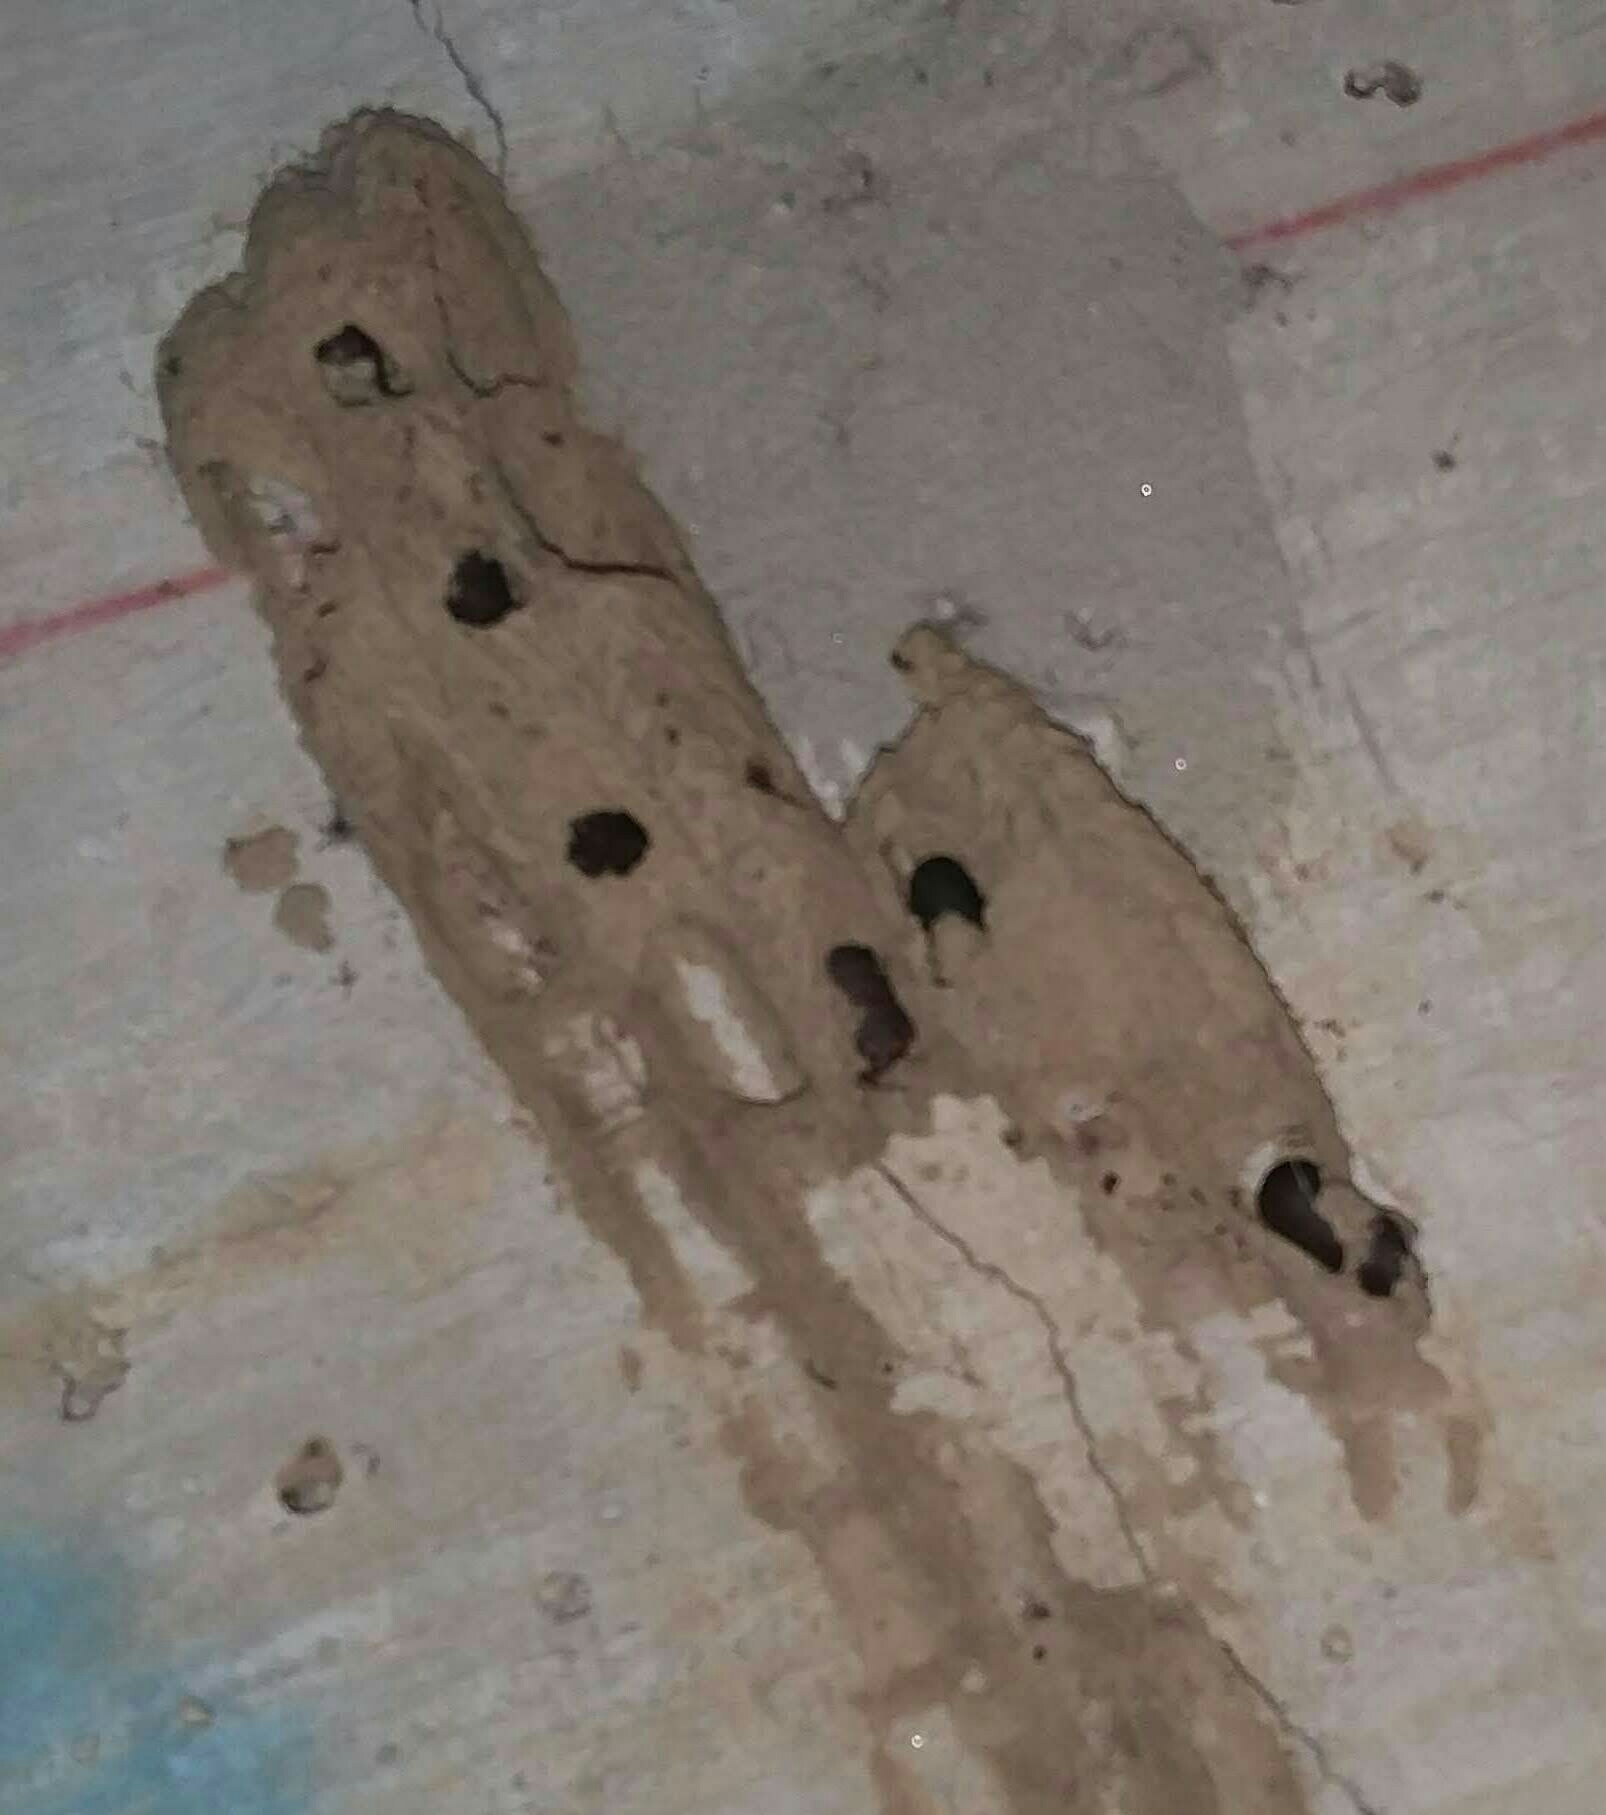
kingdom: Animalia
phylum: Arthropoda
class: Insecta
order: Hymenoptera
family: Crabronidae
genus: Trypoxylon
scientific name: Trypoxylon politum
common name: Organ-pipe mud-dauber wasp
